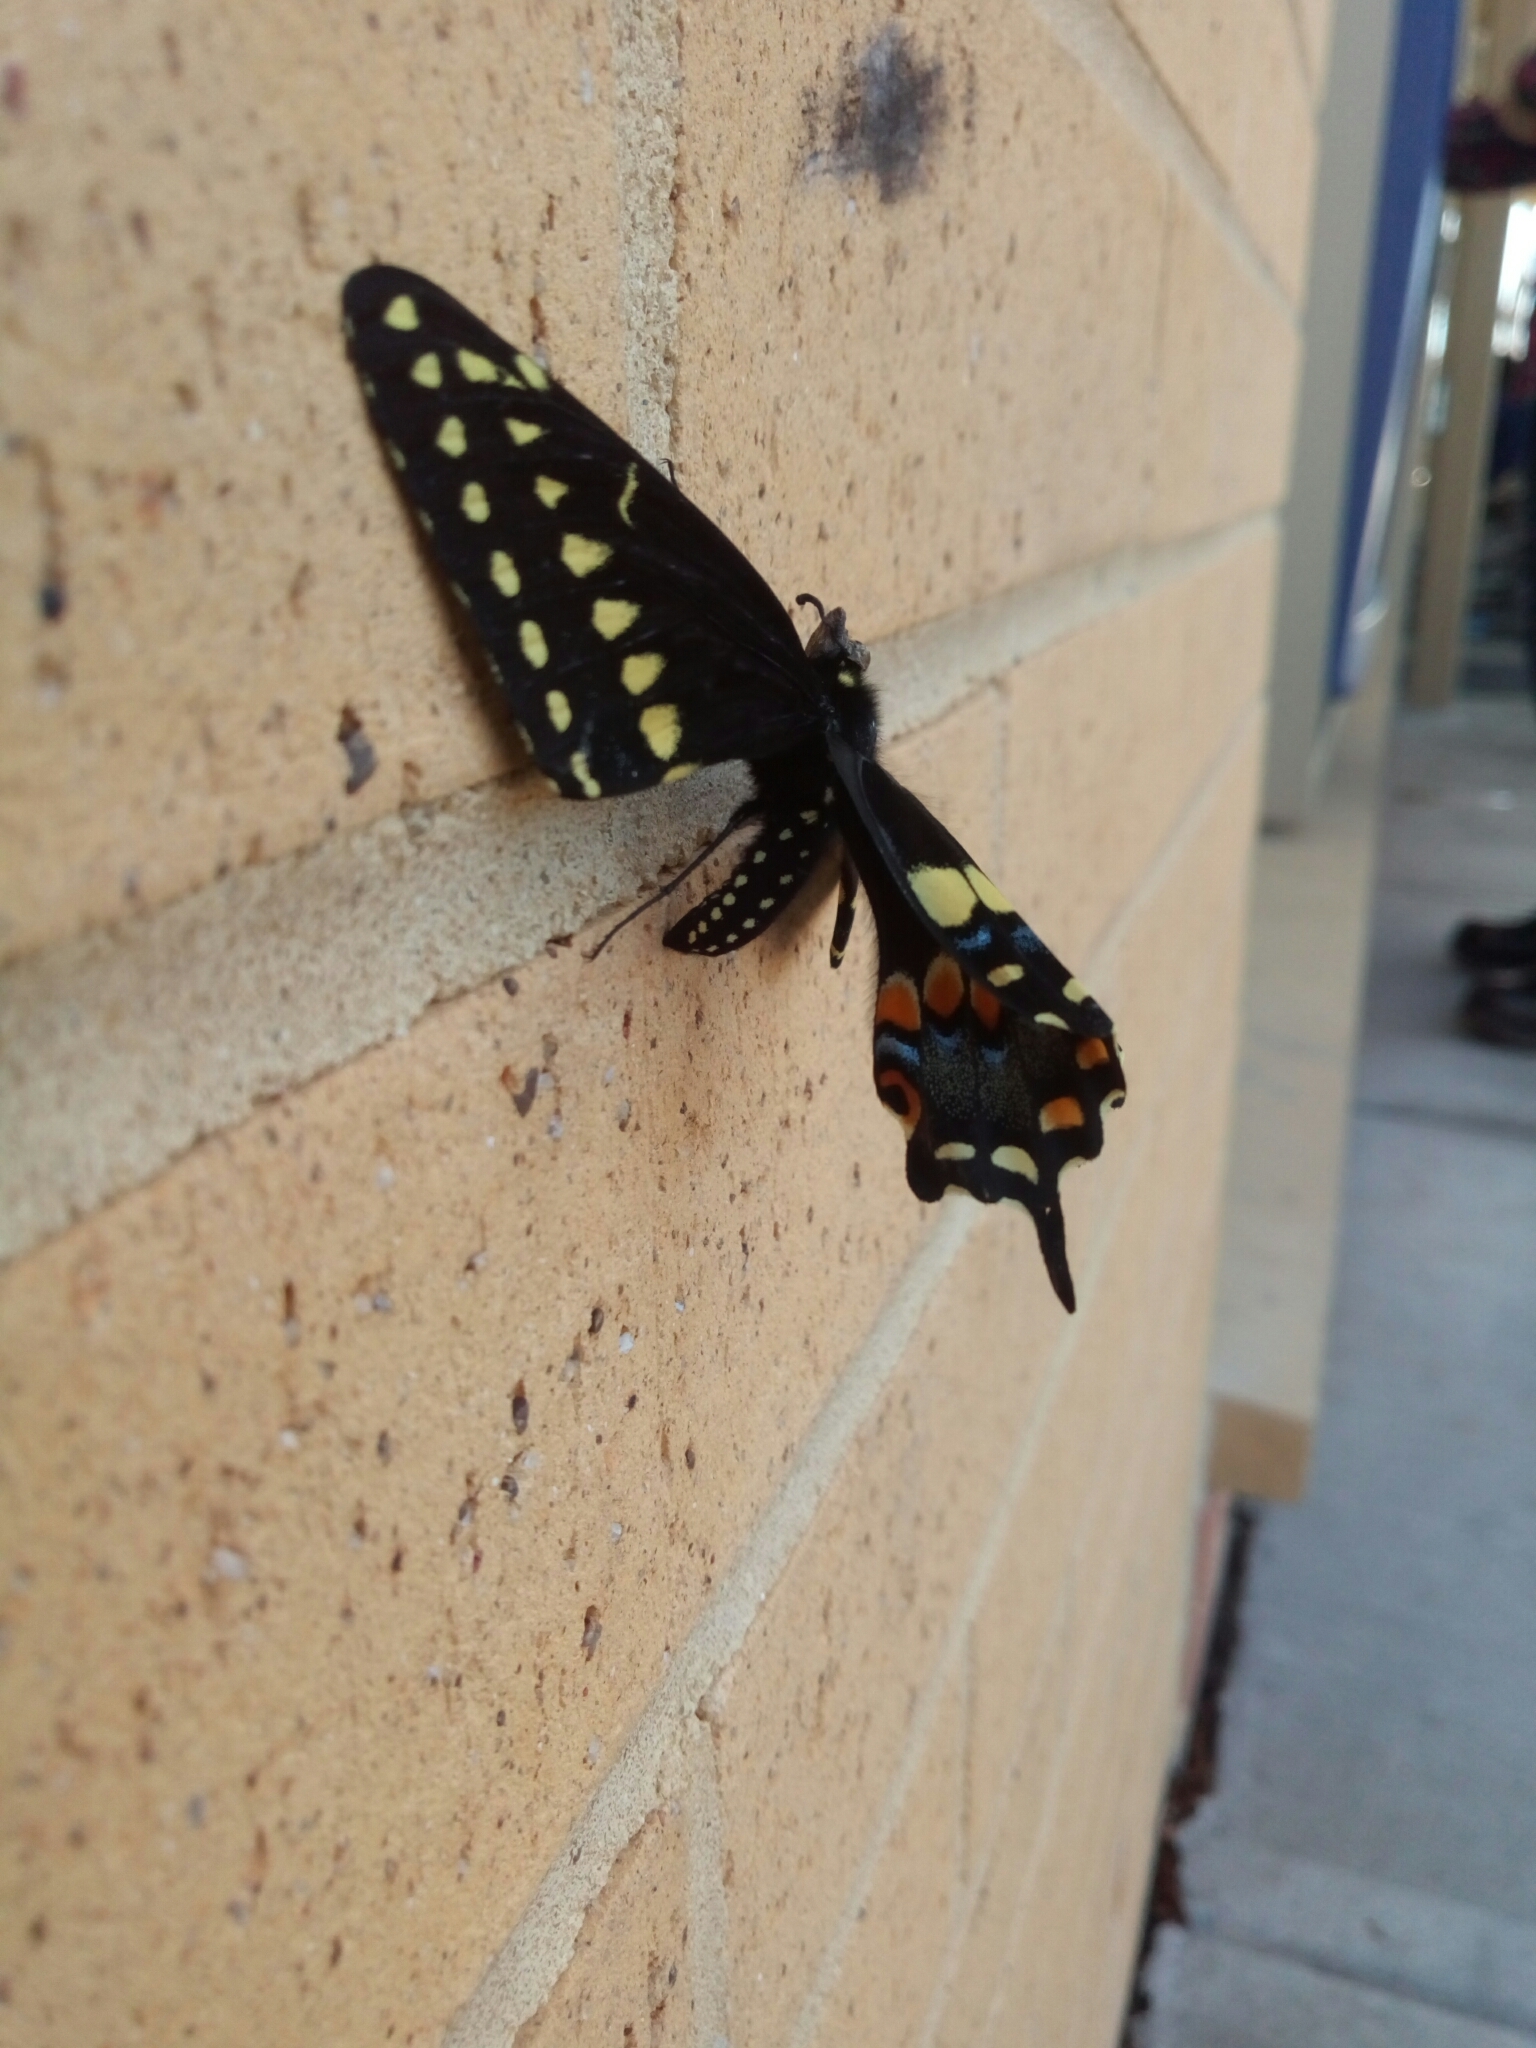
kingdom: Animalia
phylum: Arthropoda
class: Insecta
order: Lepidoptera
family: Papilionidae
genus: Papilio
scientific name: Papilio polyxenes
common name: Black swallowtail
